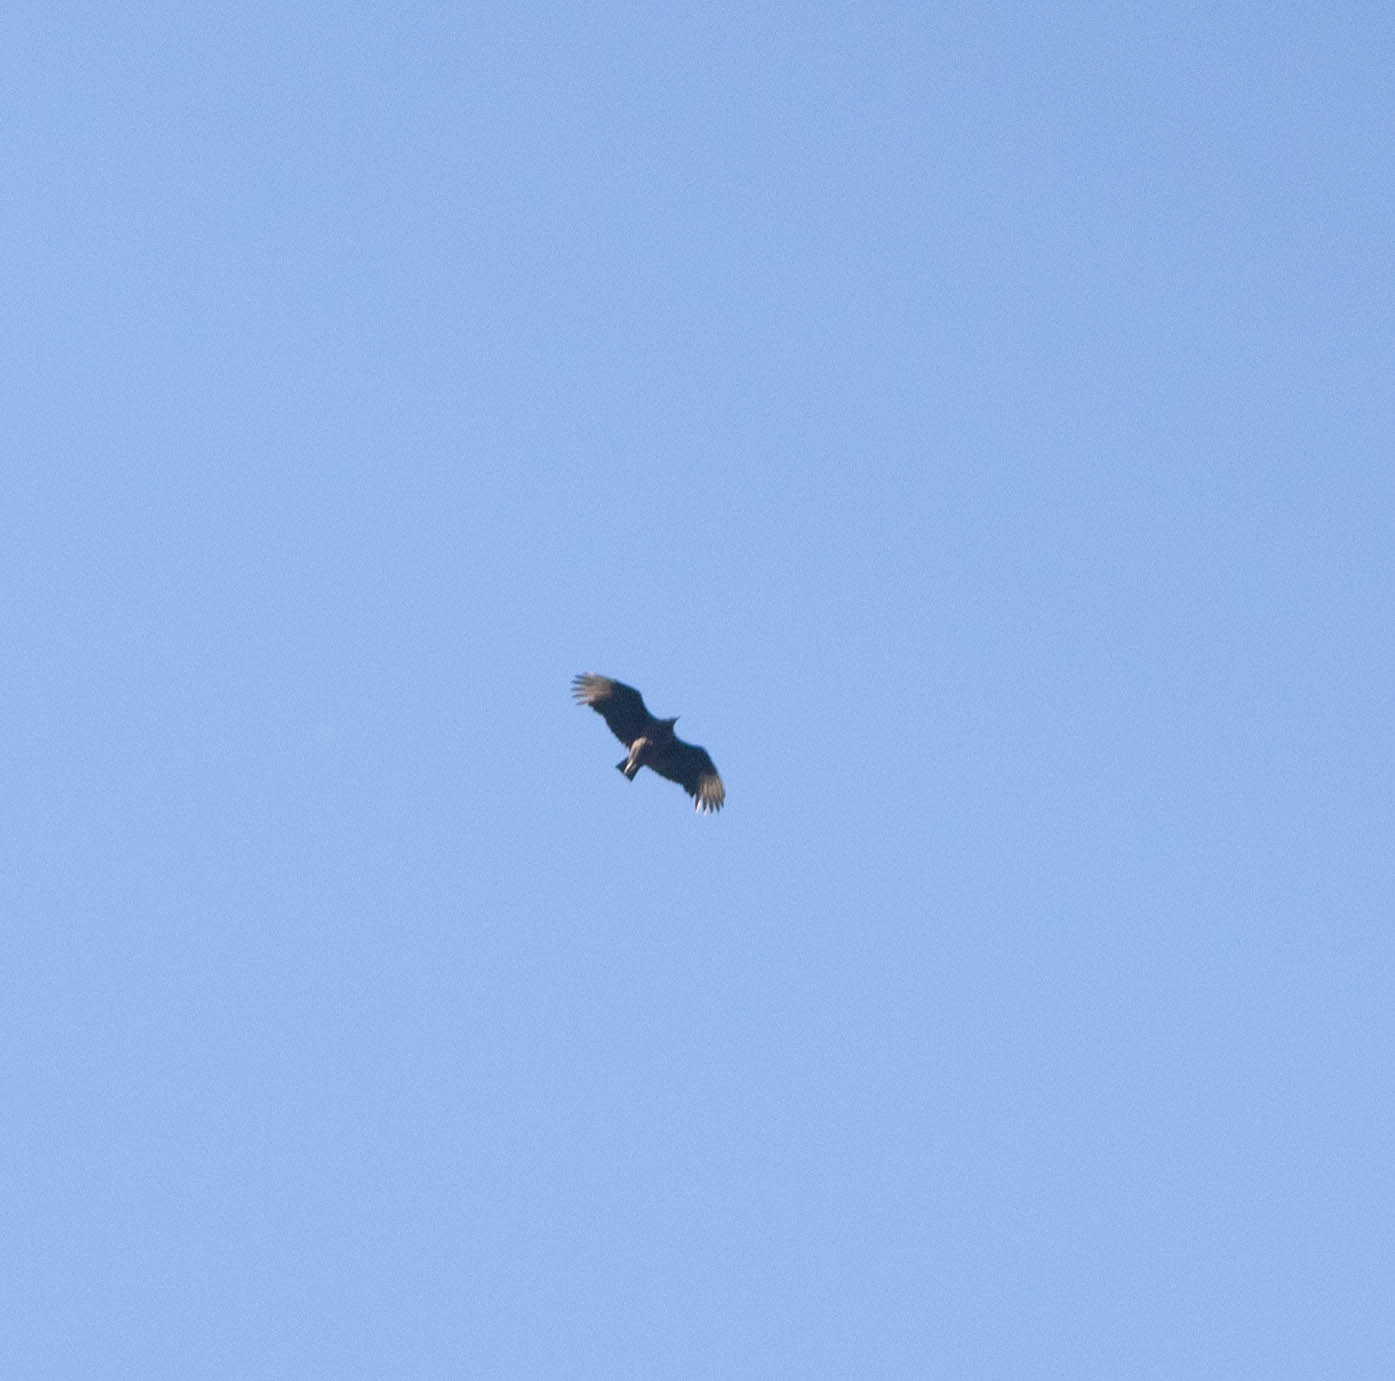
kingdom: Animalia
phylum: Chordata
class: Aves
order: Accipitriformes
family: Cathartidae
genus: Coragyps
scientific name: Coragyps atratus
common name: Black vulture
